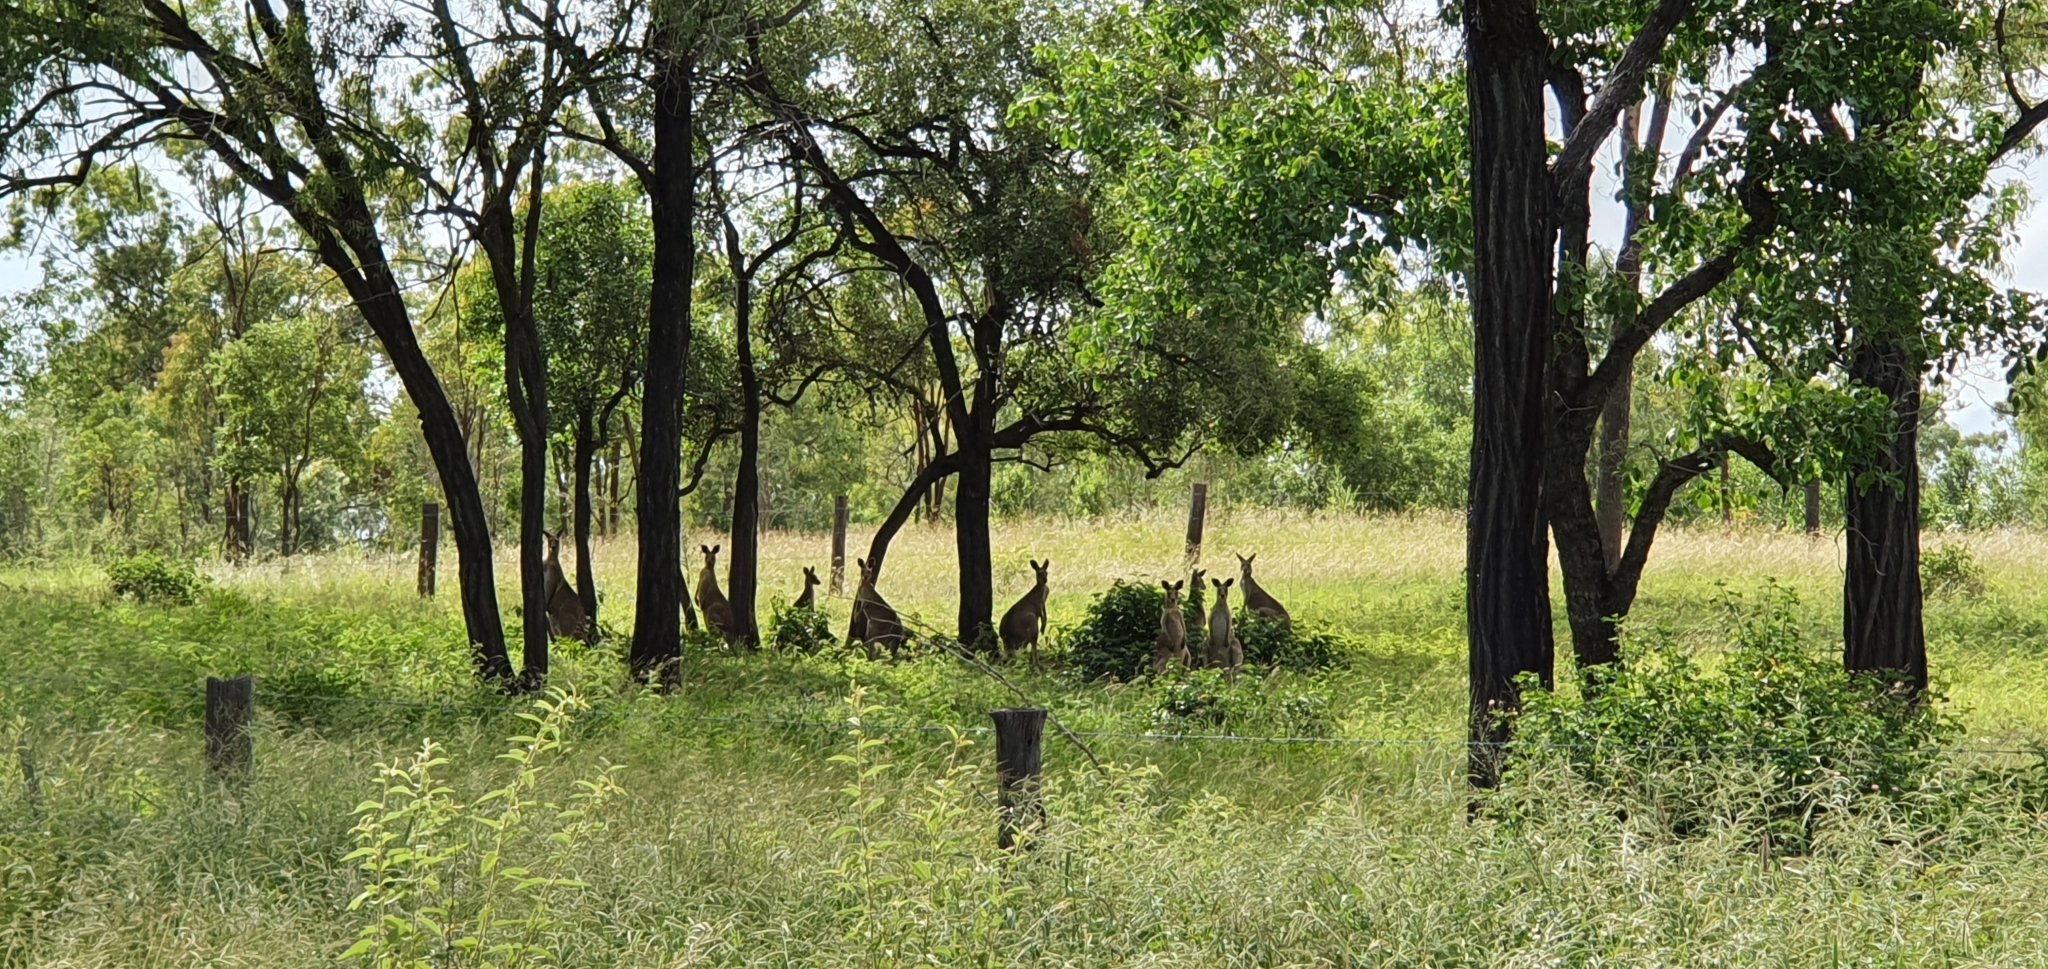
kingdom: Animalia
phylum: Chordata
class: Mammalia
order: Diprotodontia
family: Macropodidae
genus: Macropus
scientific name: Macropus giganteus
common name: Eastern grey kangaroo
